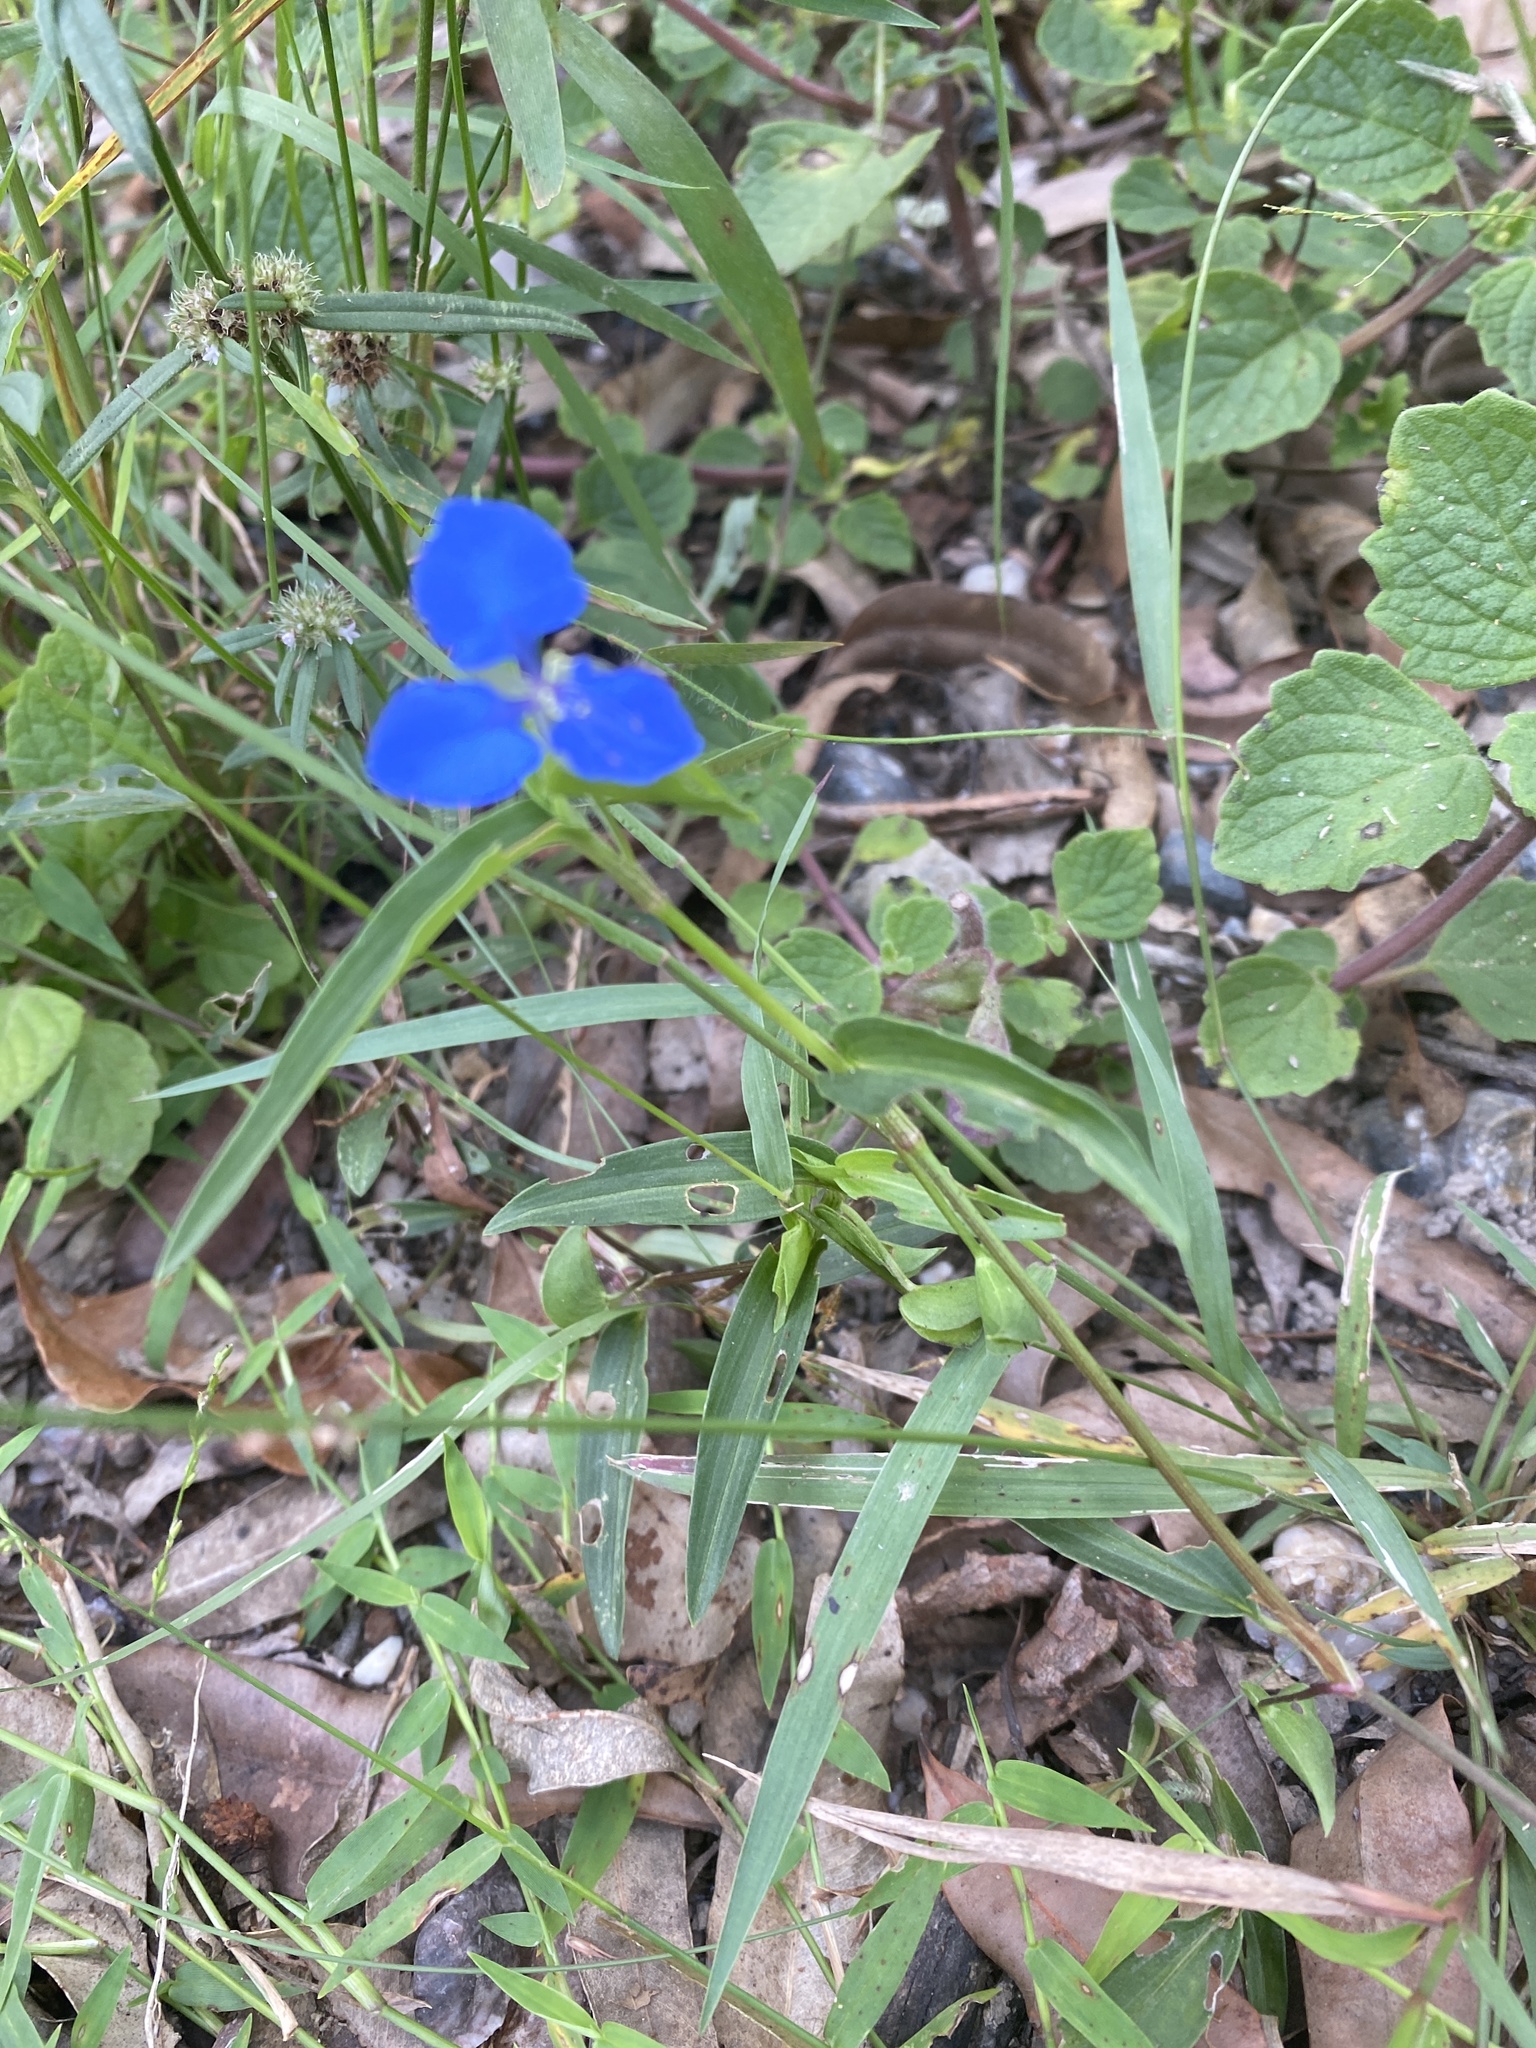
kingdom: Plantae
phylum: Tracheophyta
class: Liliopsida
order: Commelinales
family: Commelinaceae
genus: Commelina
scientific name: Commelina cyanea
